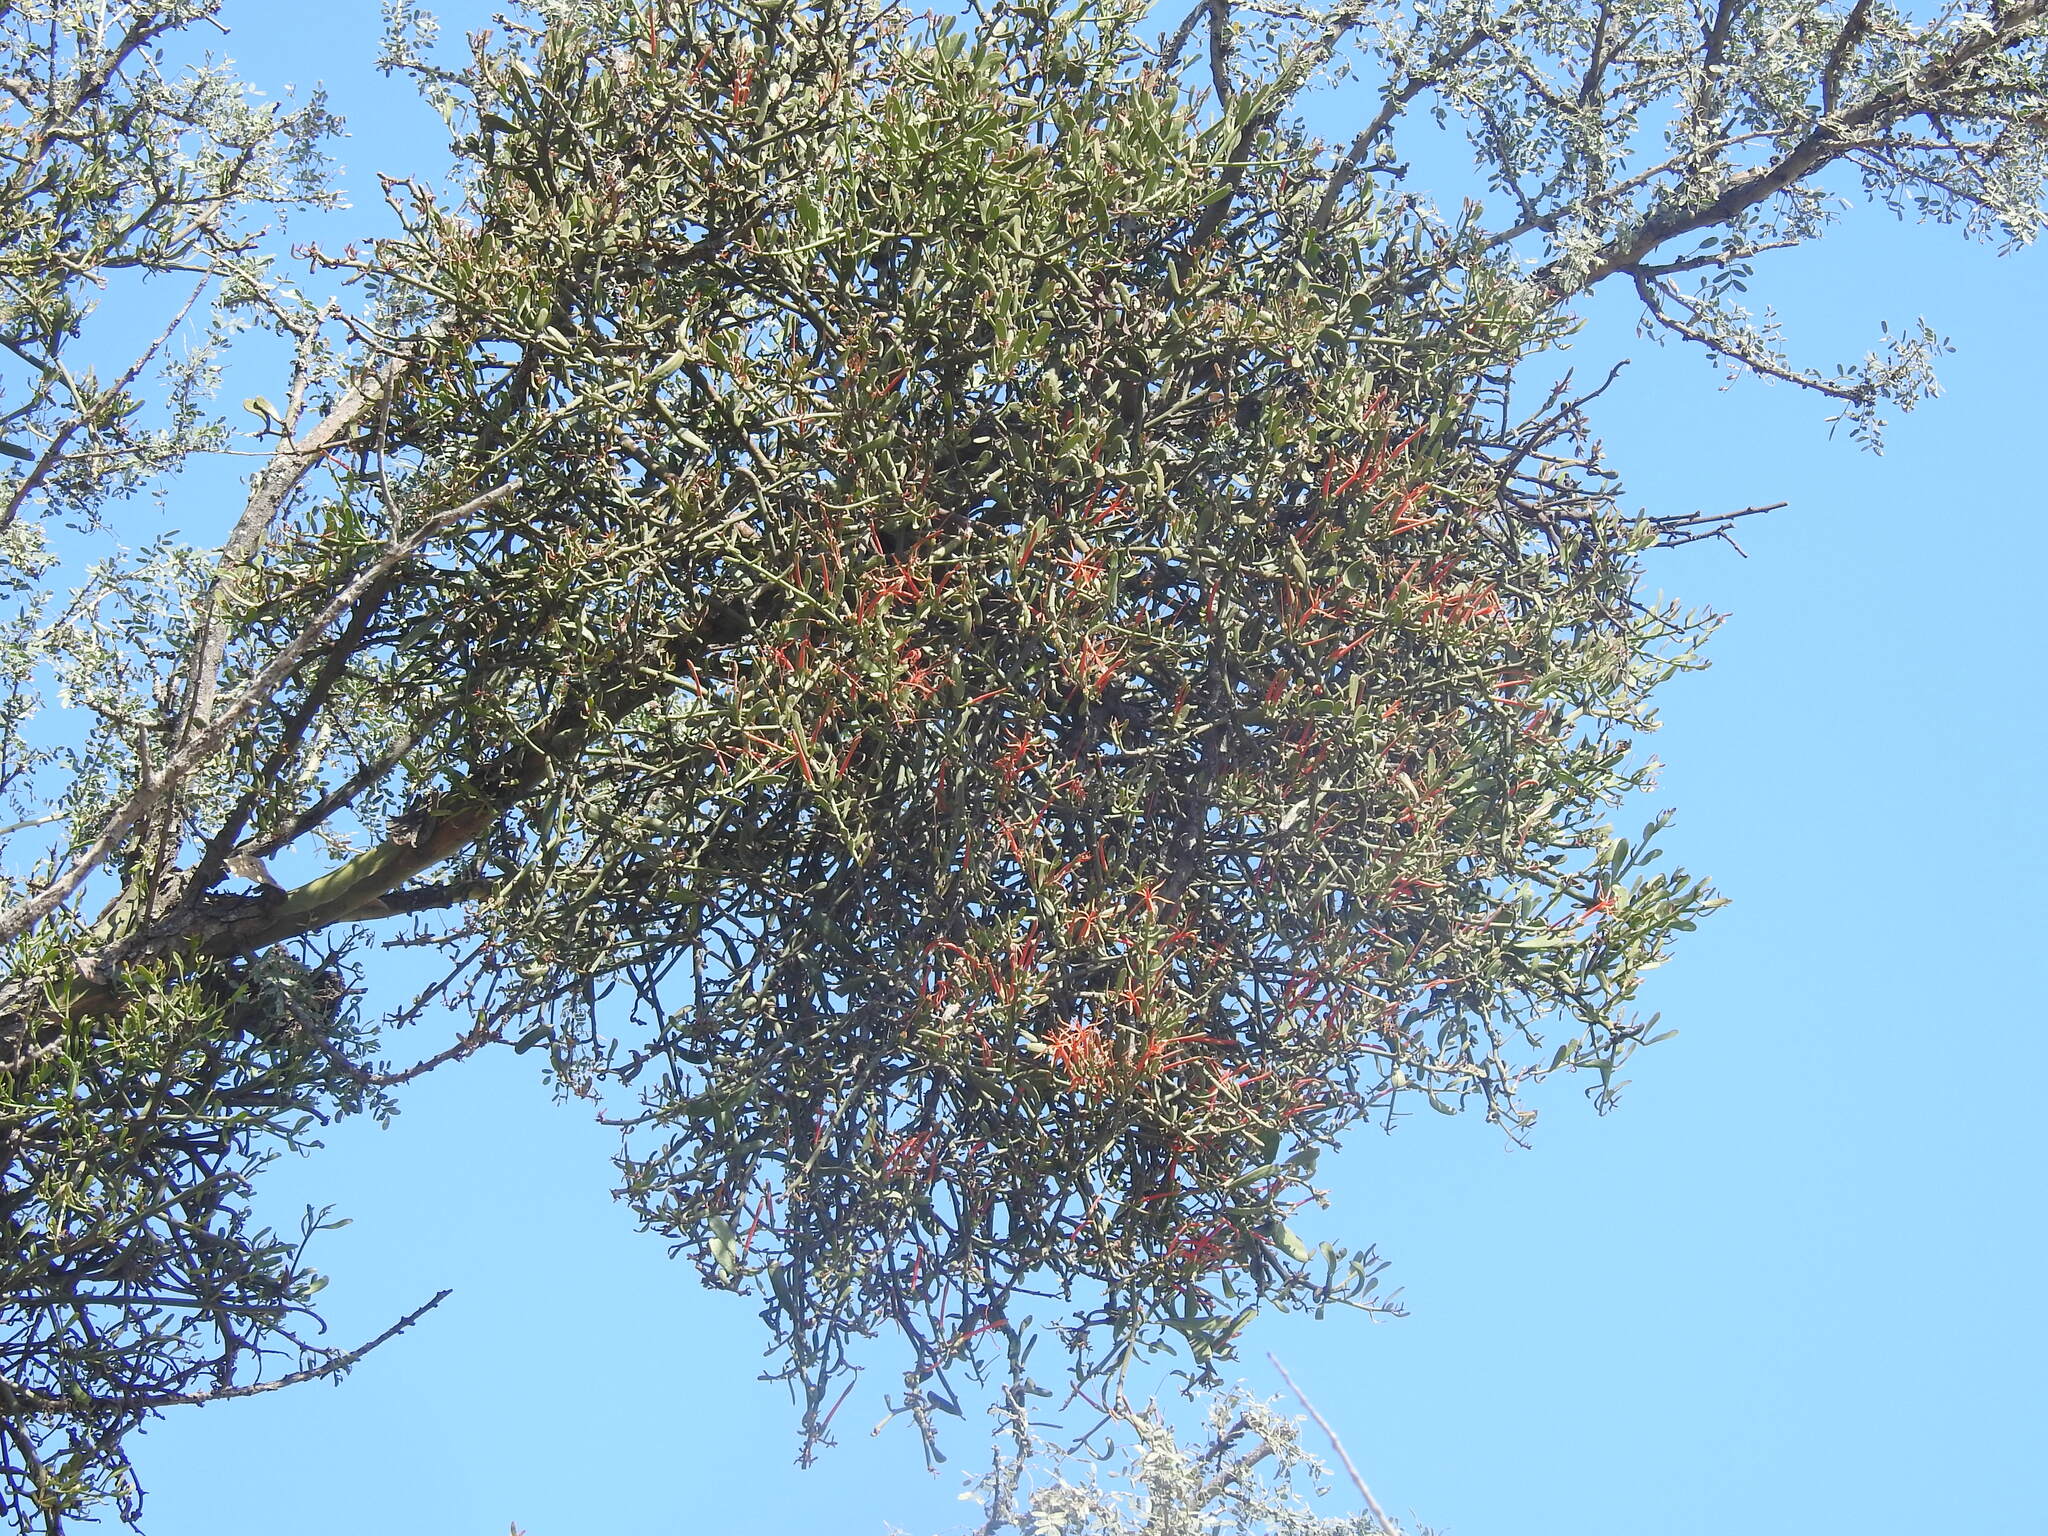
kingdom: Plantae
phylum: Tracheophyta
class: Magnoliopsida
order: Santalales
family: Loranthaceae
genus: Ligaria
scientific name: Ligaria cuneifolia
